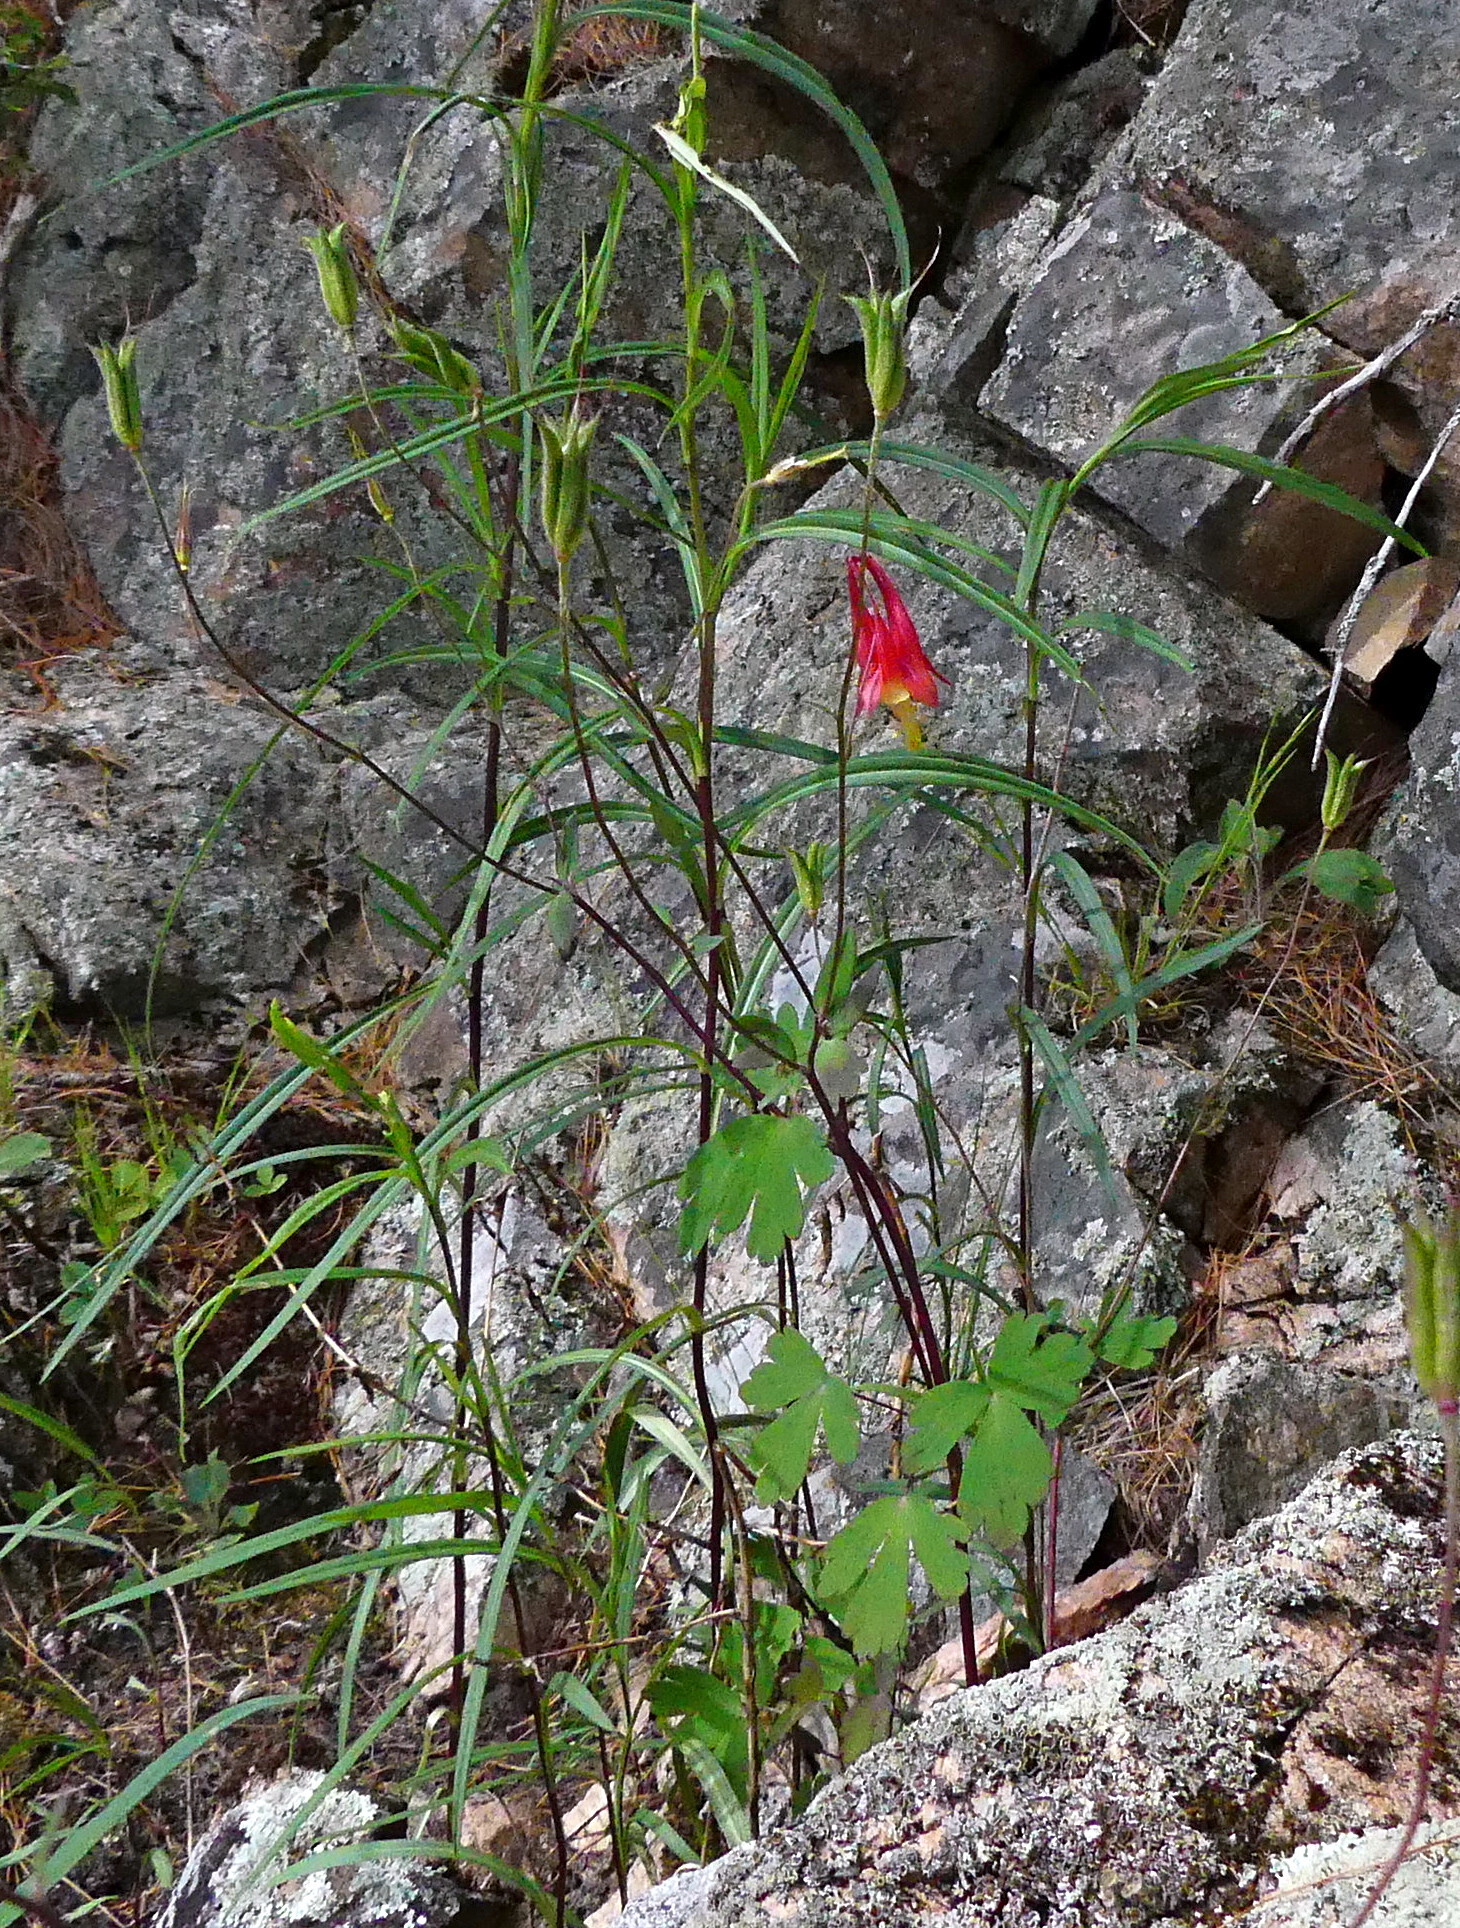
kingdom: Plantae
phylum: Tracheophyta
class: Magnoliopsida
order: Ranunculales
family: Ranunculaceae
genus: Aquilegia
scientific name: Aquilegia canadensis
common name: American columbine
